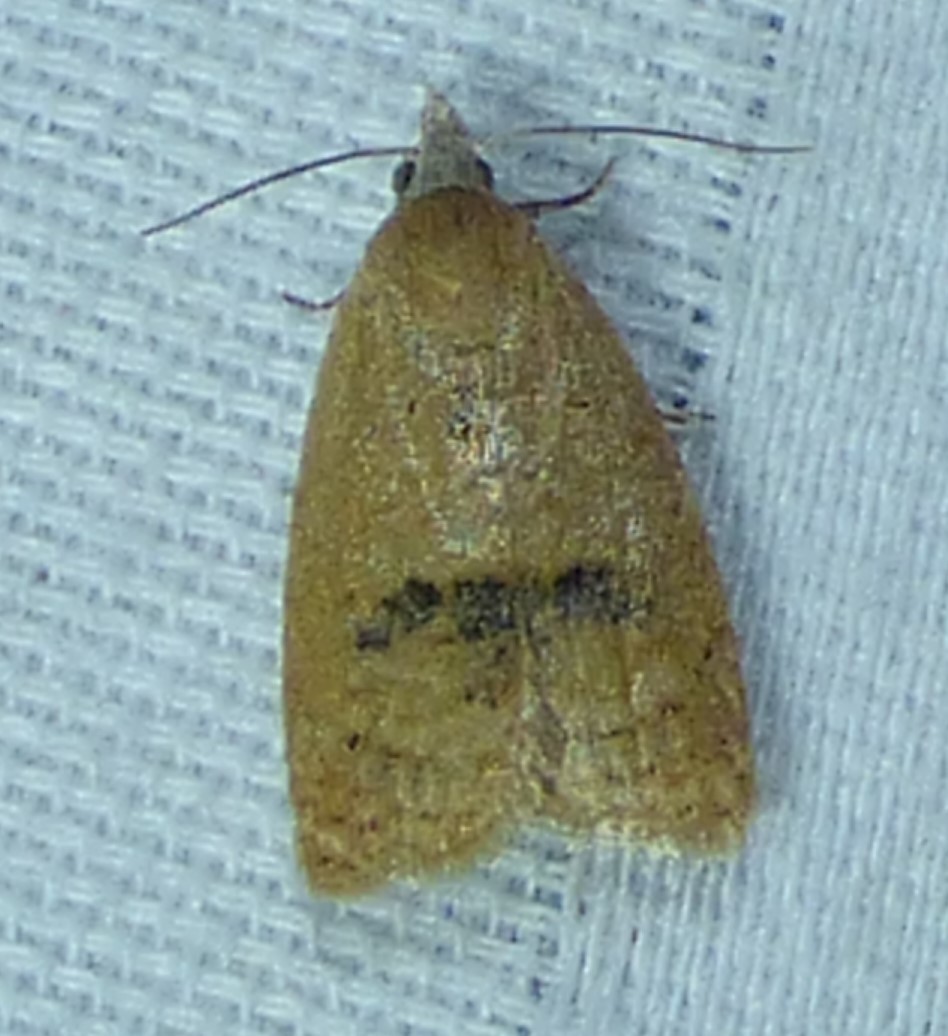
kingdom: Animalia
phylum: Arthropoda
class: Insecta
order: Lepidoptera
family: Tortricidae
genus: Sparganothoides
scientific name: Sparganothoides lentiginosana
